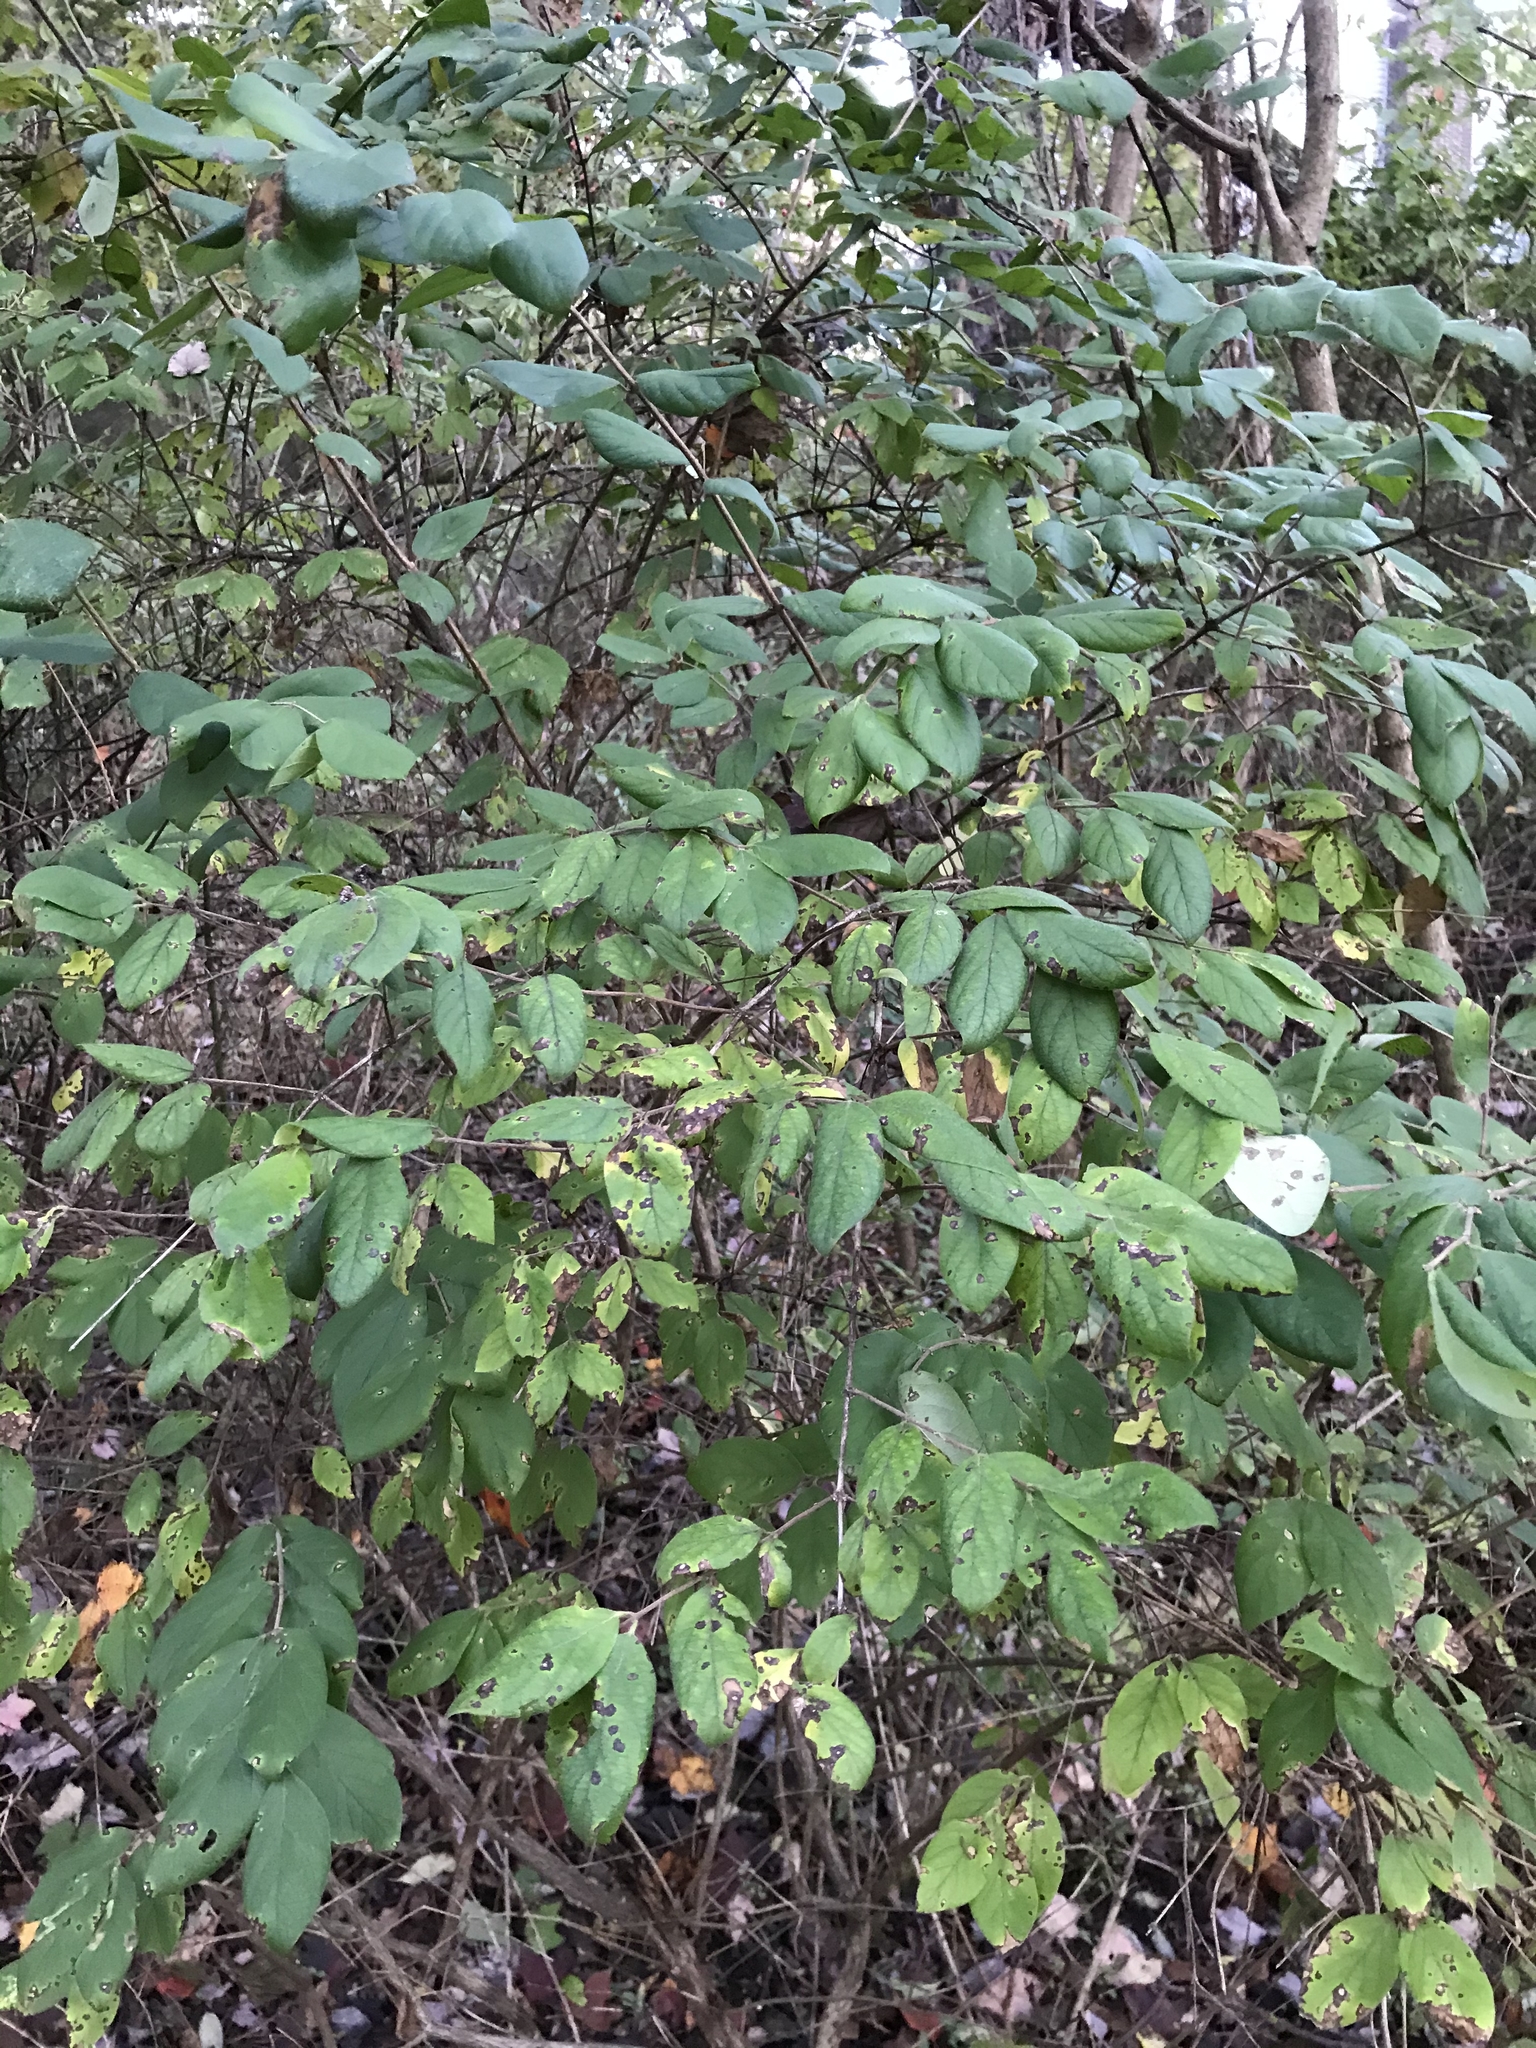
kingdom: Plantae
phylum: Tracheophyta
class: Magnoliopsida
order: Dipsacales
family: Caprifoliaceae
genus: Lonicera
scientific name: Lonicera morrowii
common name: Morrow's honeysuckle
